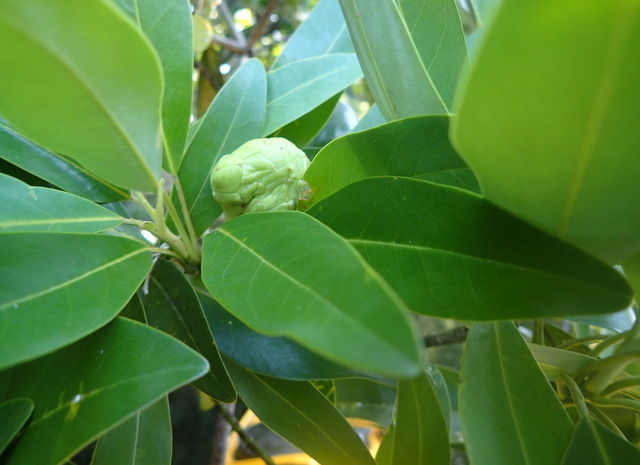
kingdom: Plantae
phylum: Tracheophyta
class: Magnoliopsida
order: Magnoliales
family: Magnoliaceae
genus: Magnolia
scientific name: Magnolia virginiana
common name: Swamp bay
